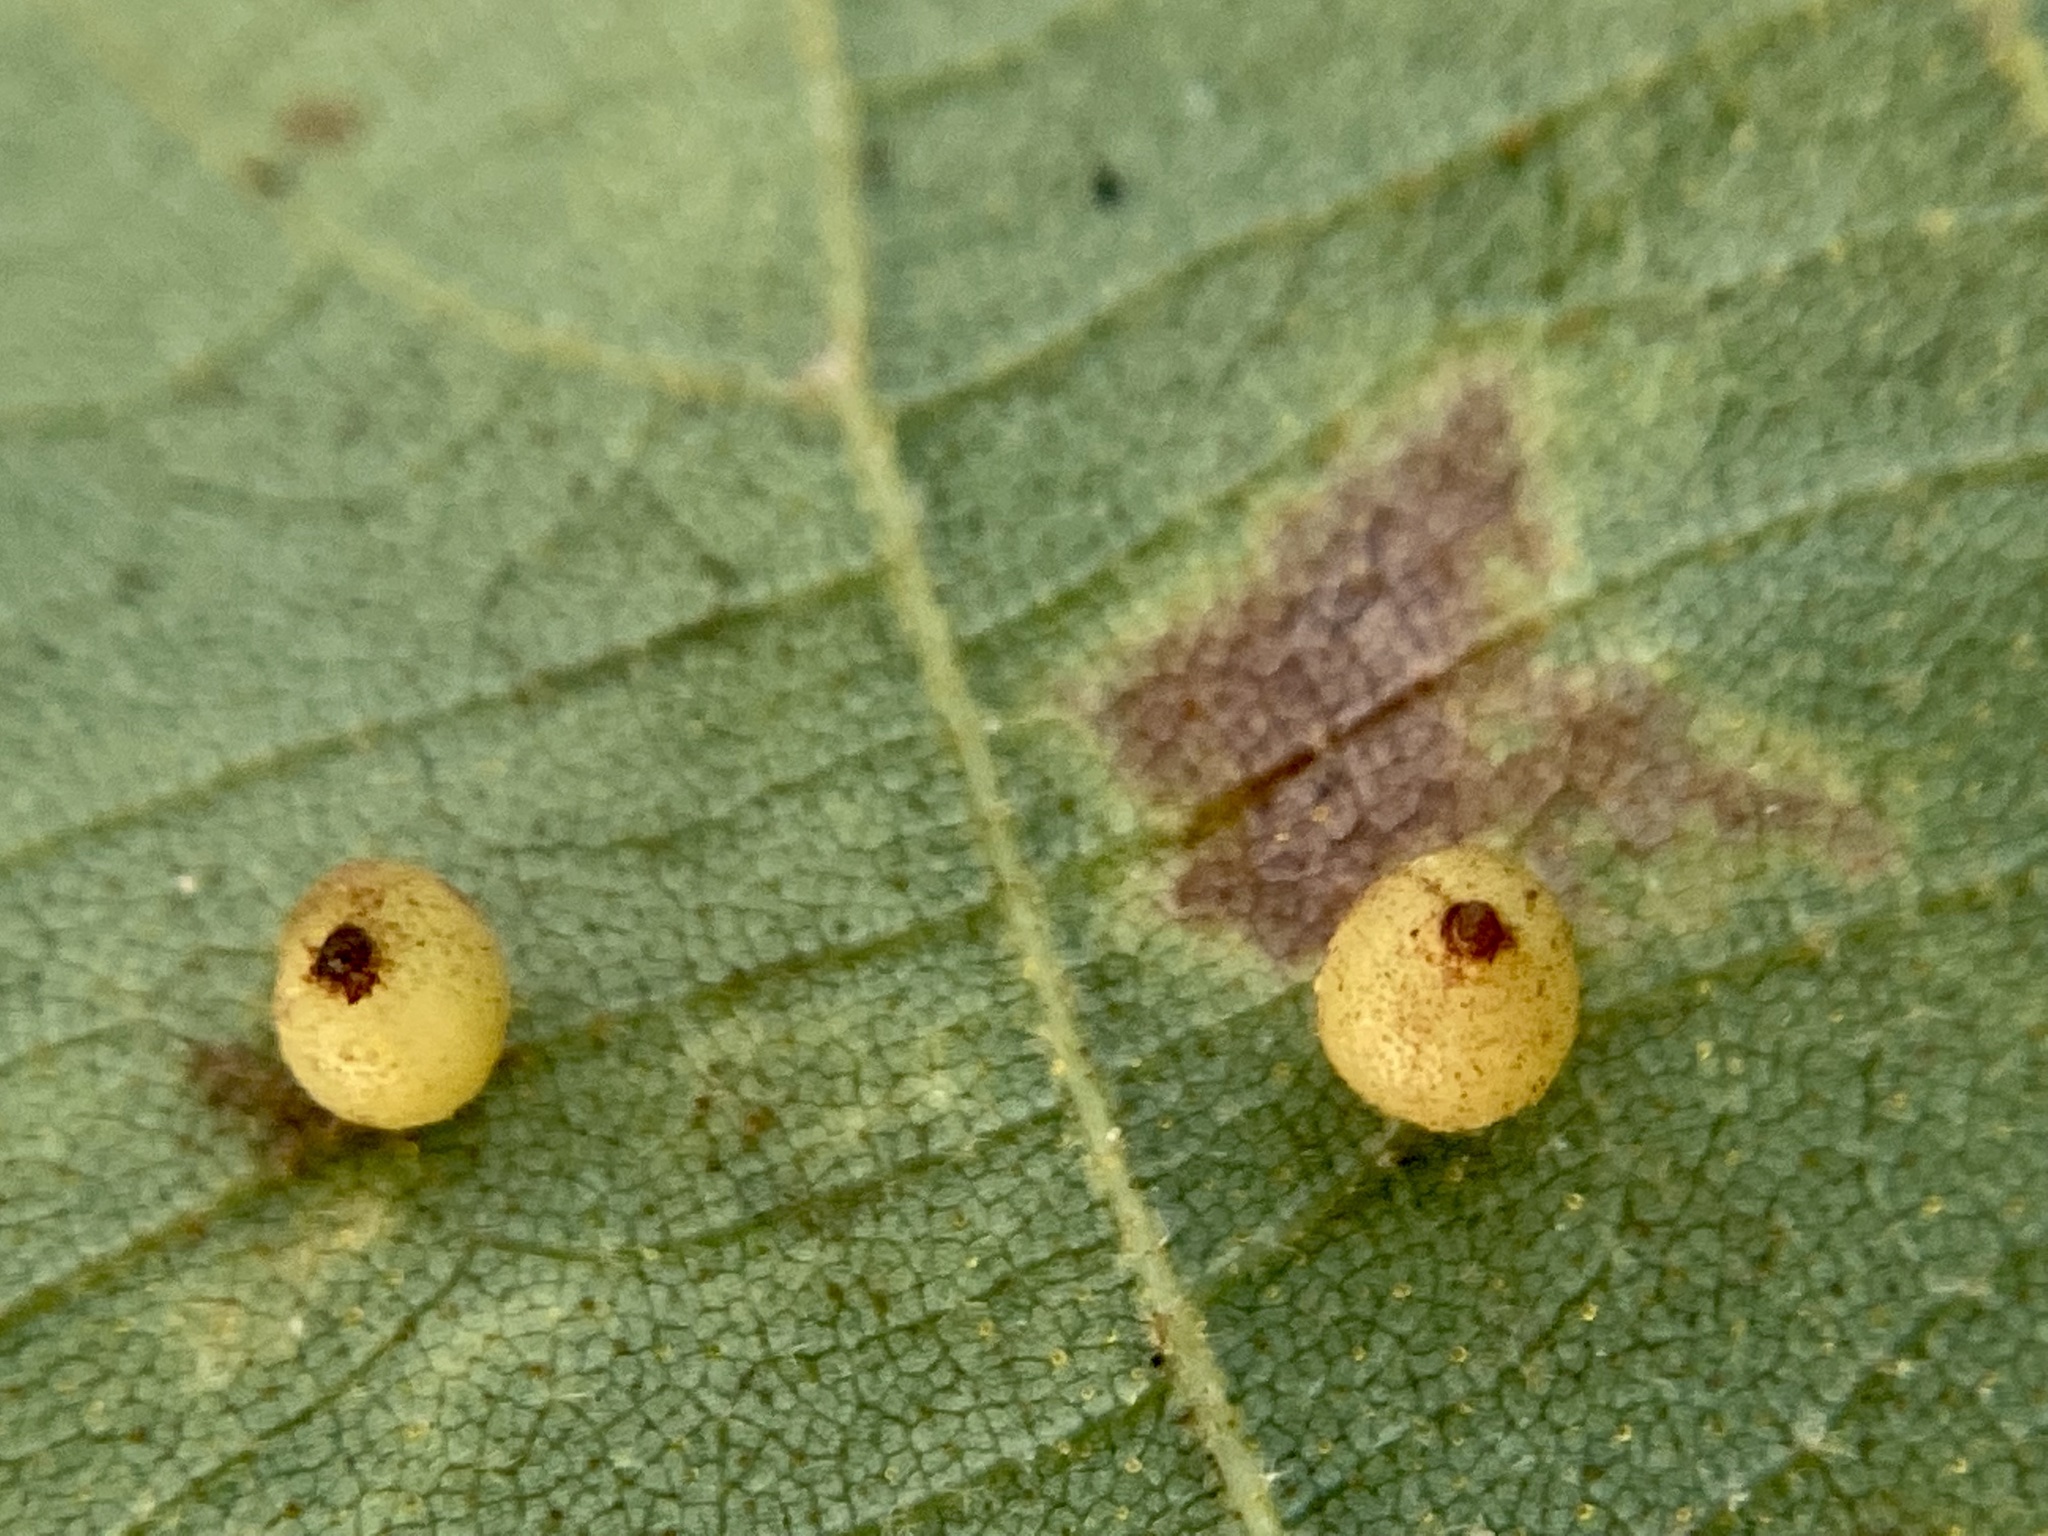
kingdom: Animalia
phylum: Arthropoda
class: Insecta
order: Diptera
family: Cecidomyiidae
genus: Caryomyia
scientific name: Caryomyia caryae
